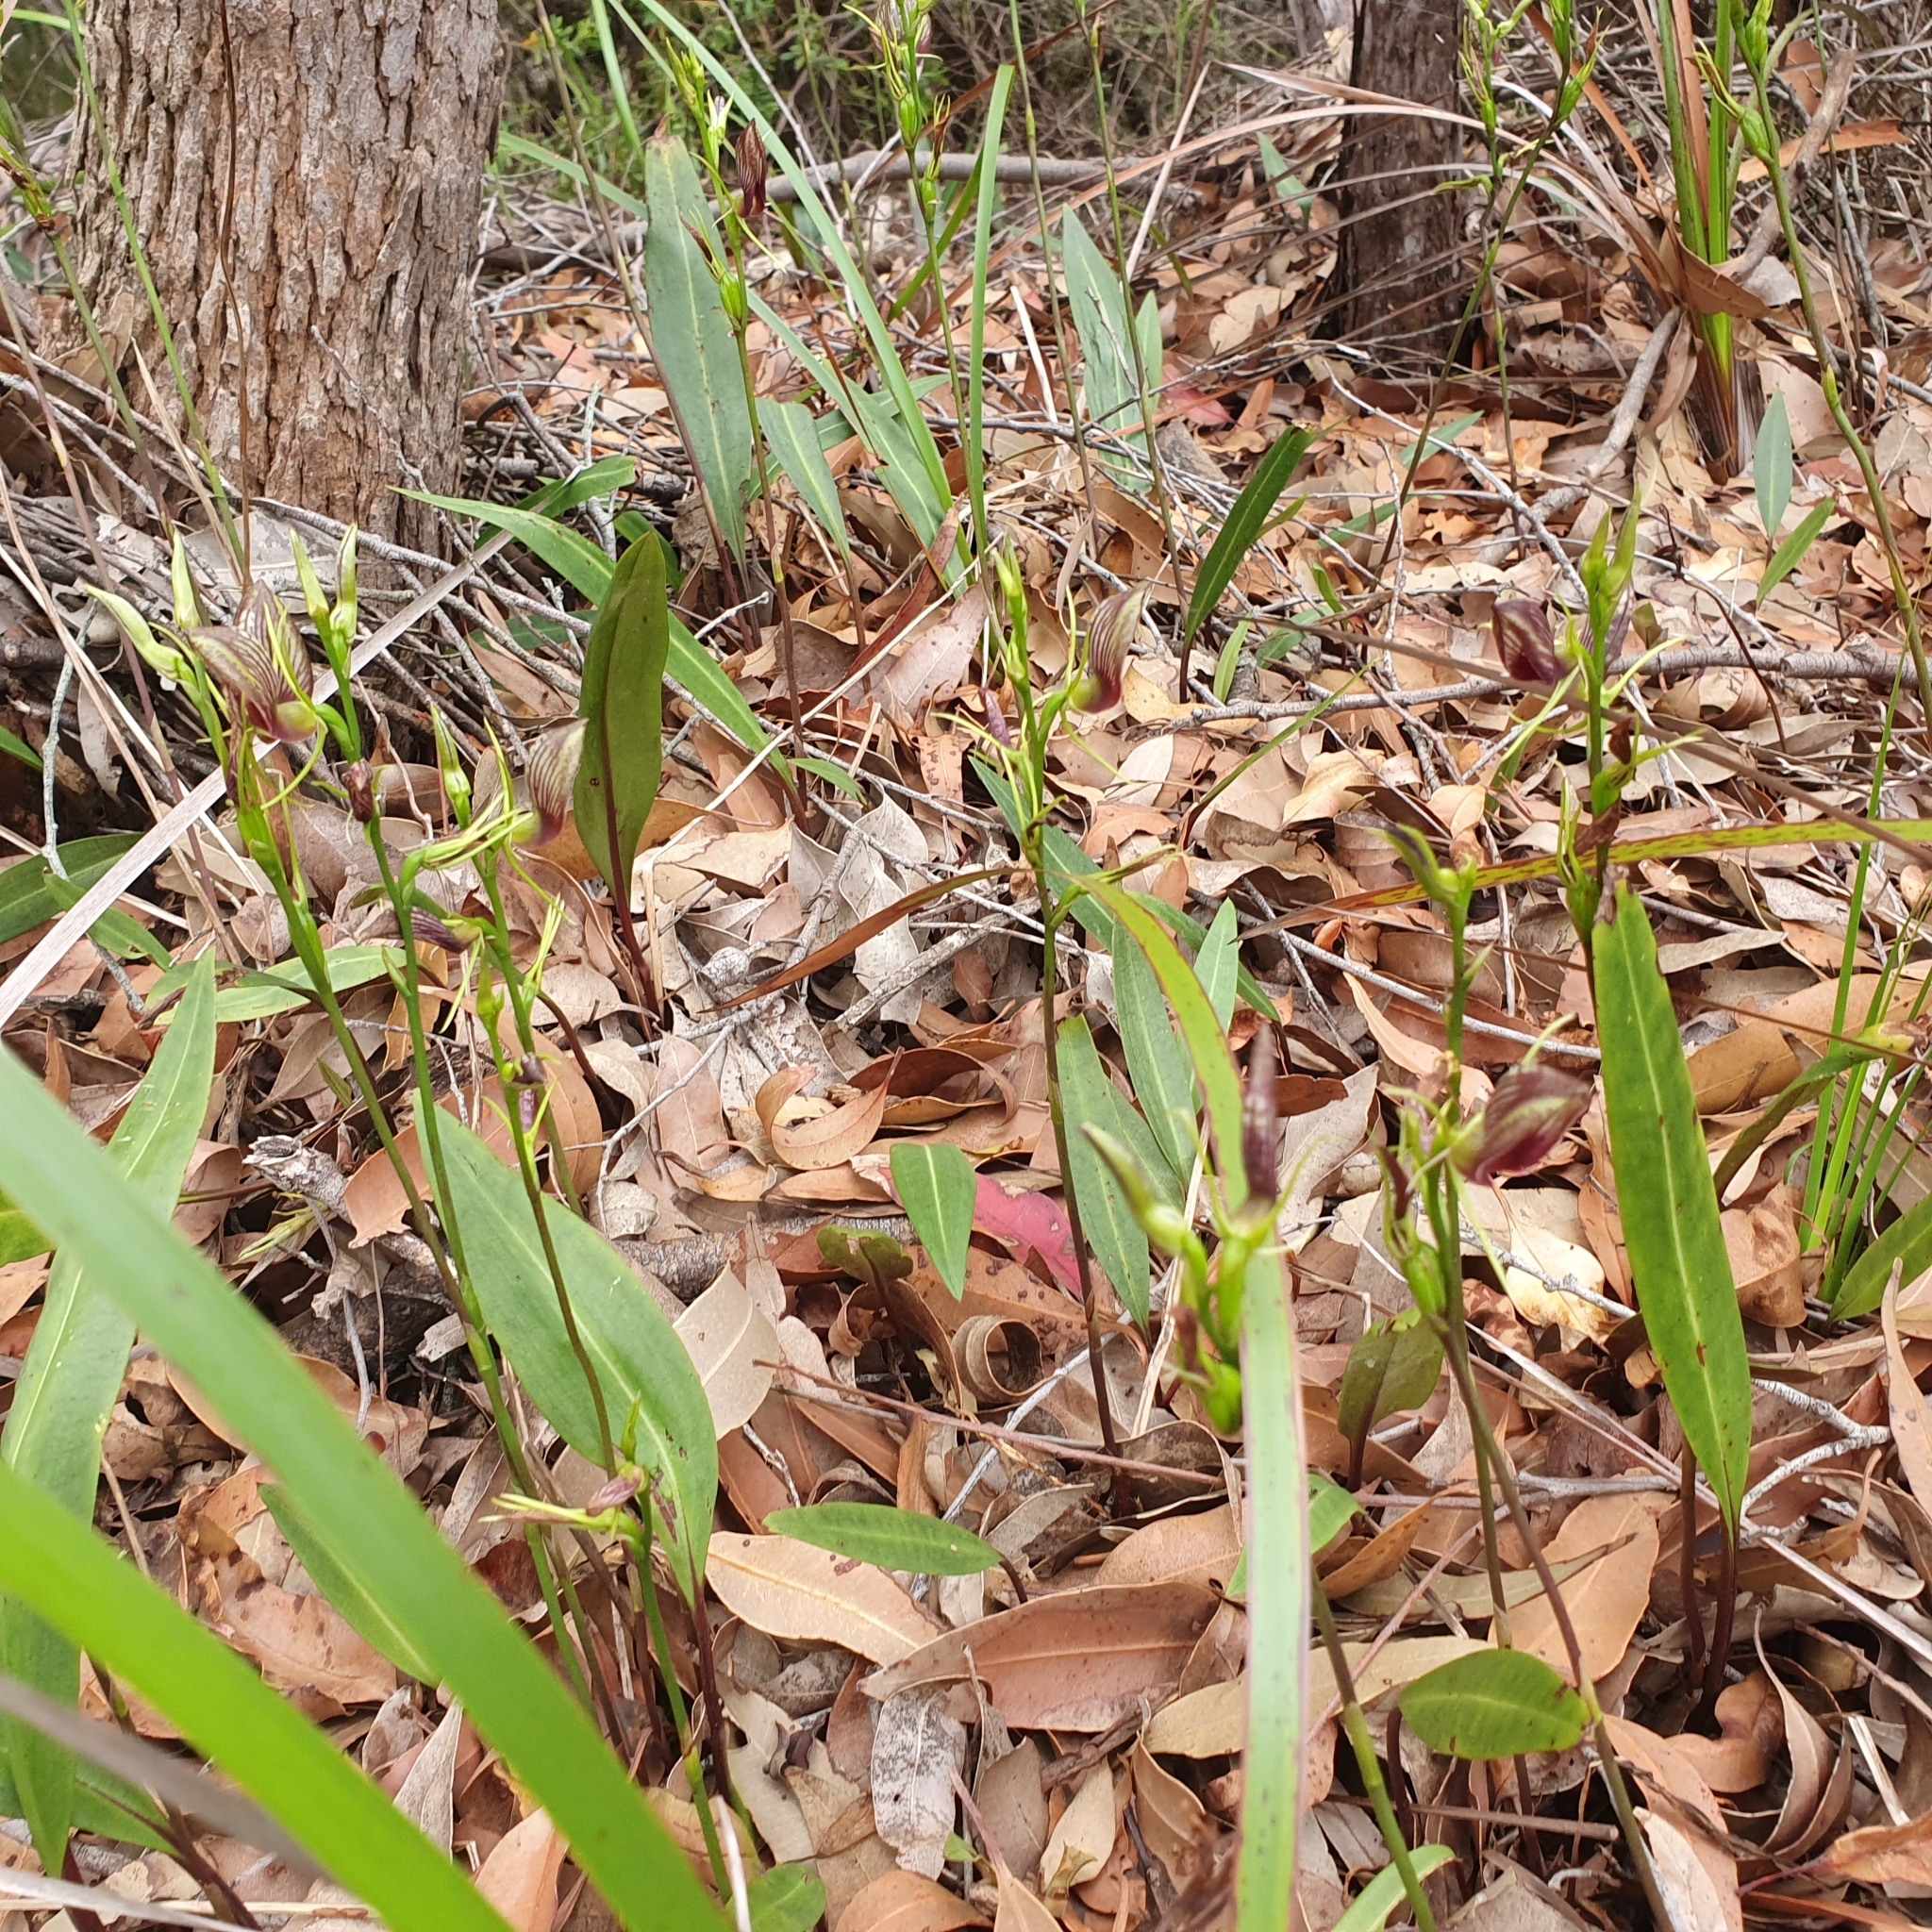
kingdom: Plantae
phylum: Tracheophyta
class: Liliopsida
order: Asparagales
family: Orchidaceae
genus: Cryptostylis
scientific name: Cryptostylis erecta
